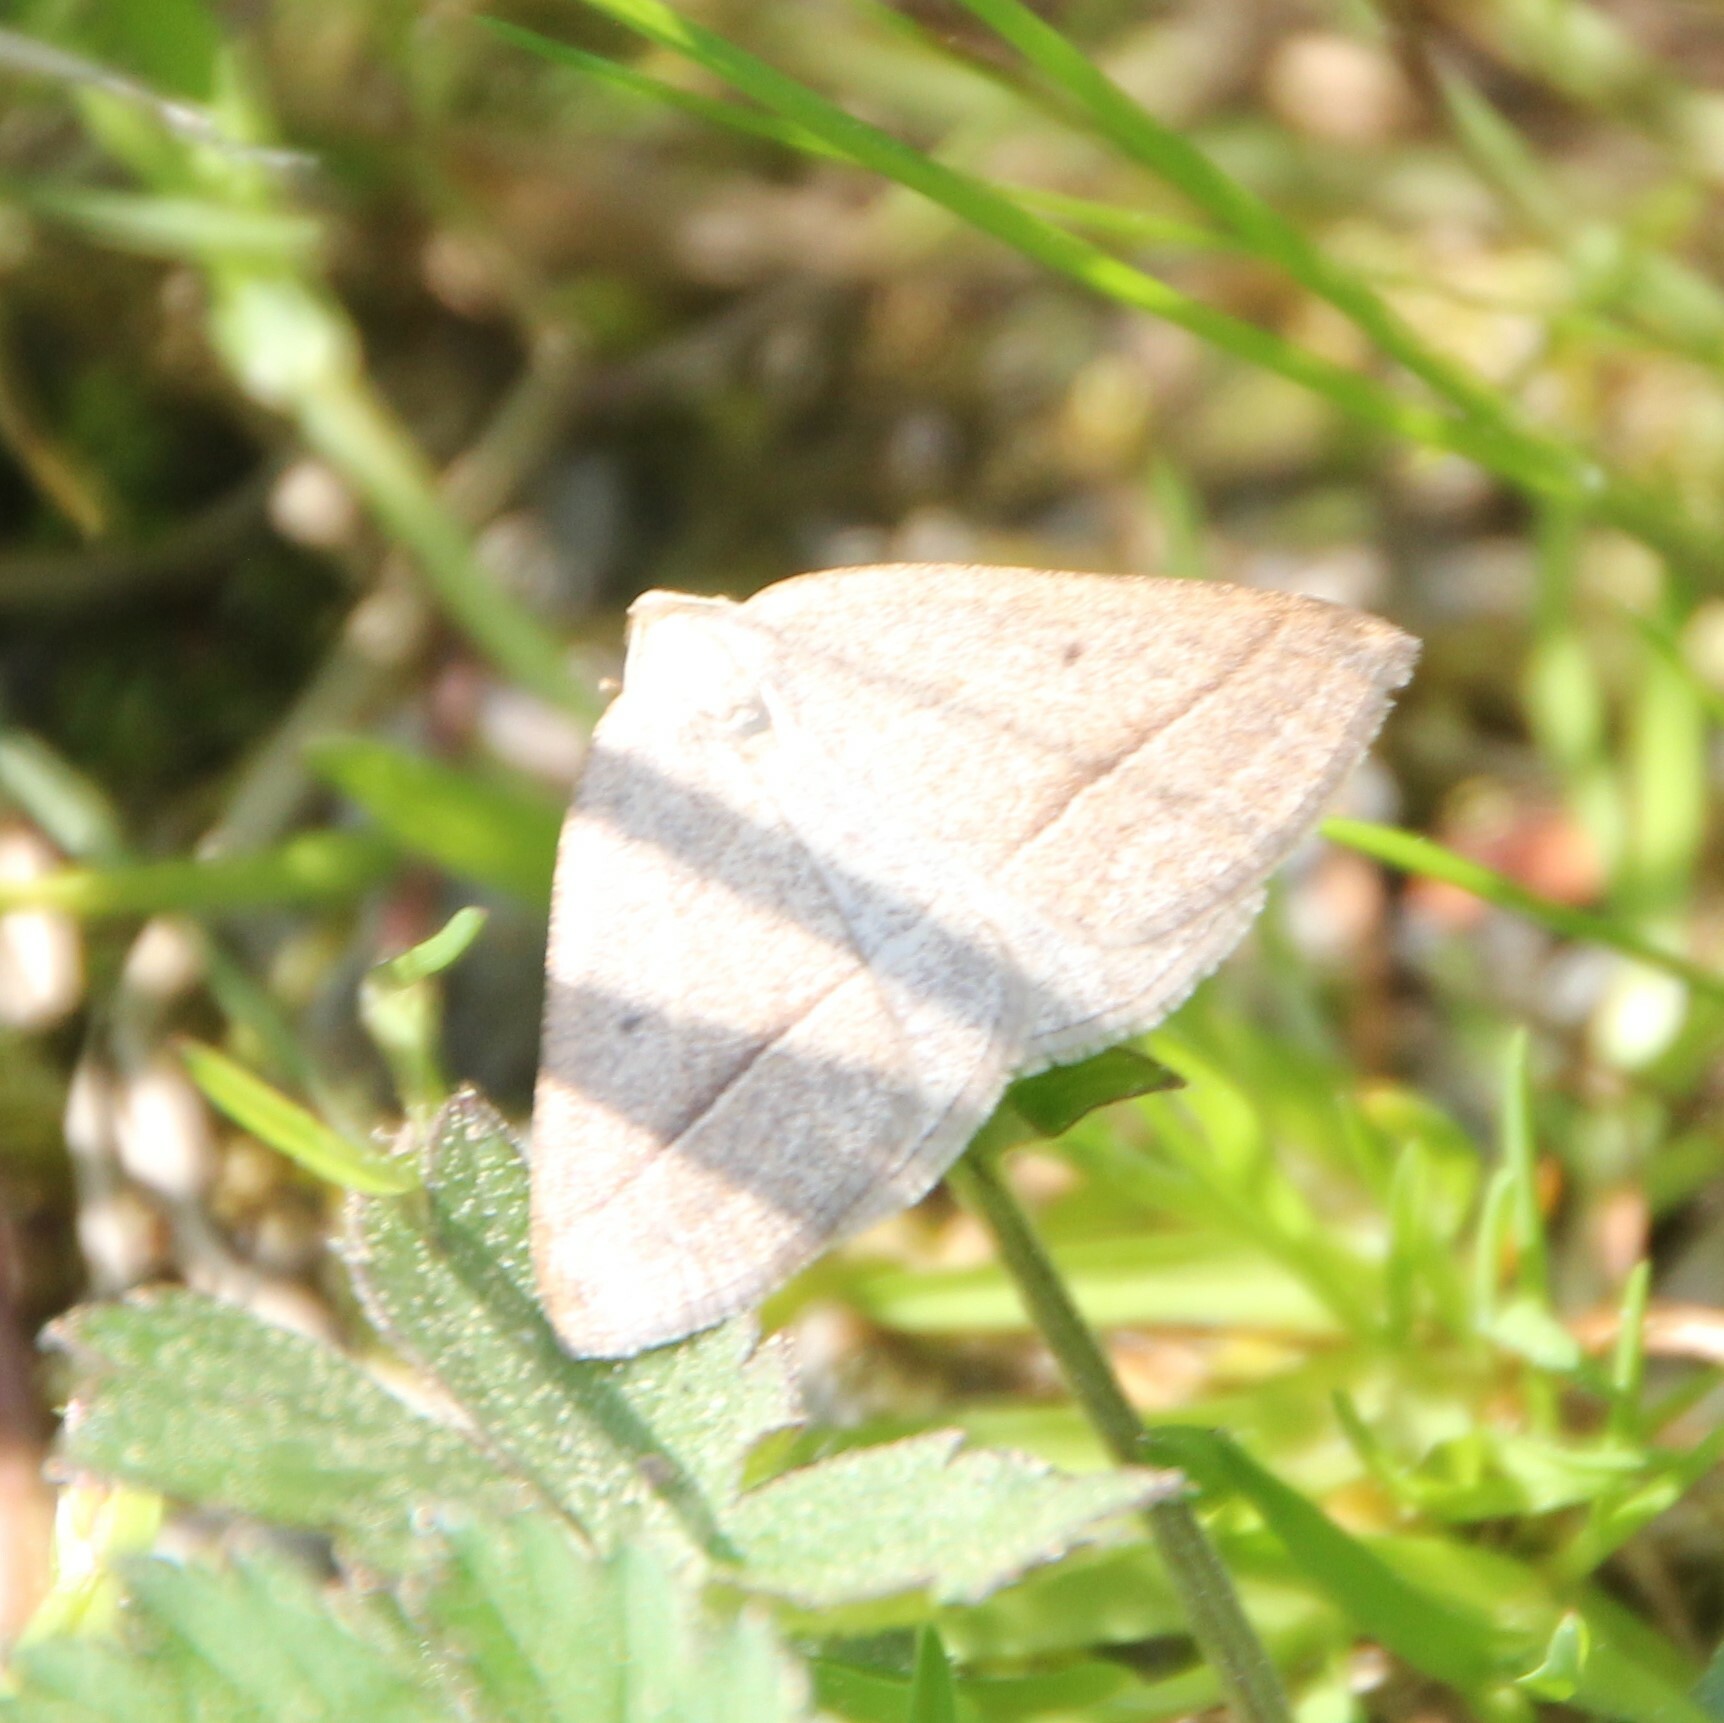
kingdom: Animalia
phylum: Arthropoda
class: Insecta
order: Lepidoptera
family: Pterophoridae
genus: Pterophorus
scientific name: Pterophorus Petrophora chlorosata
